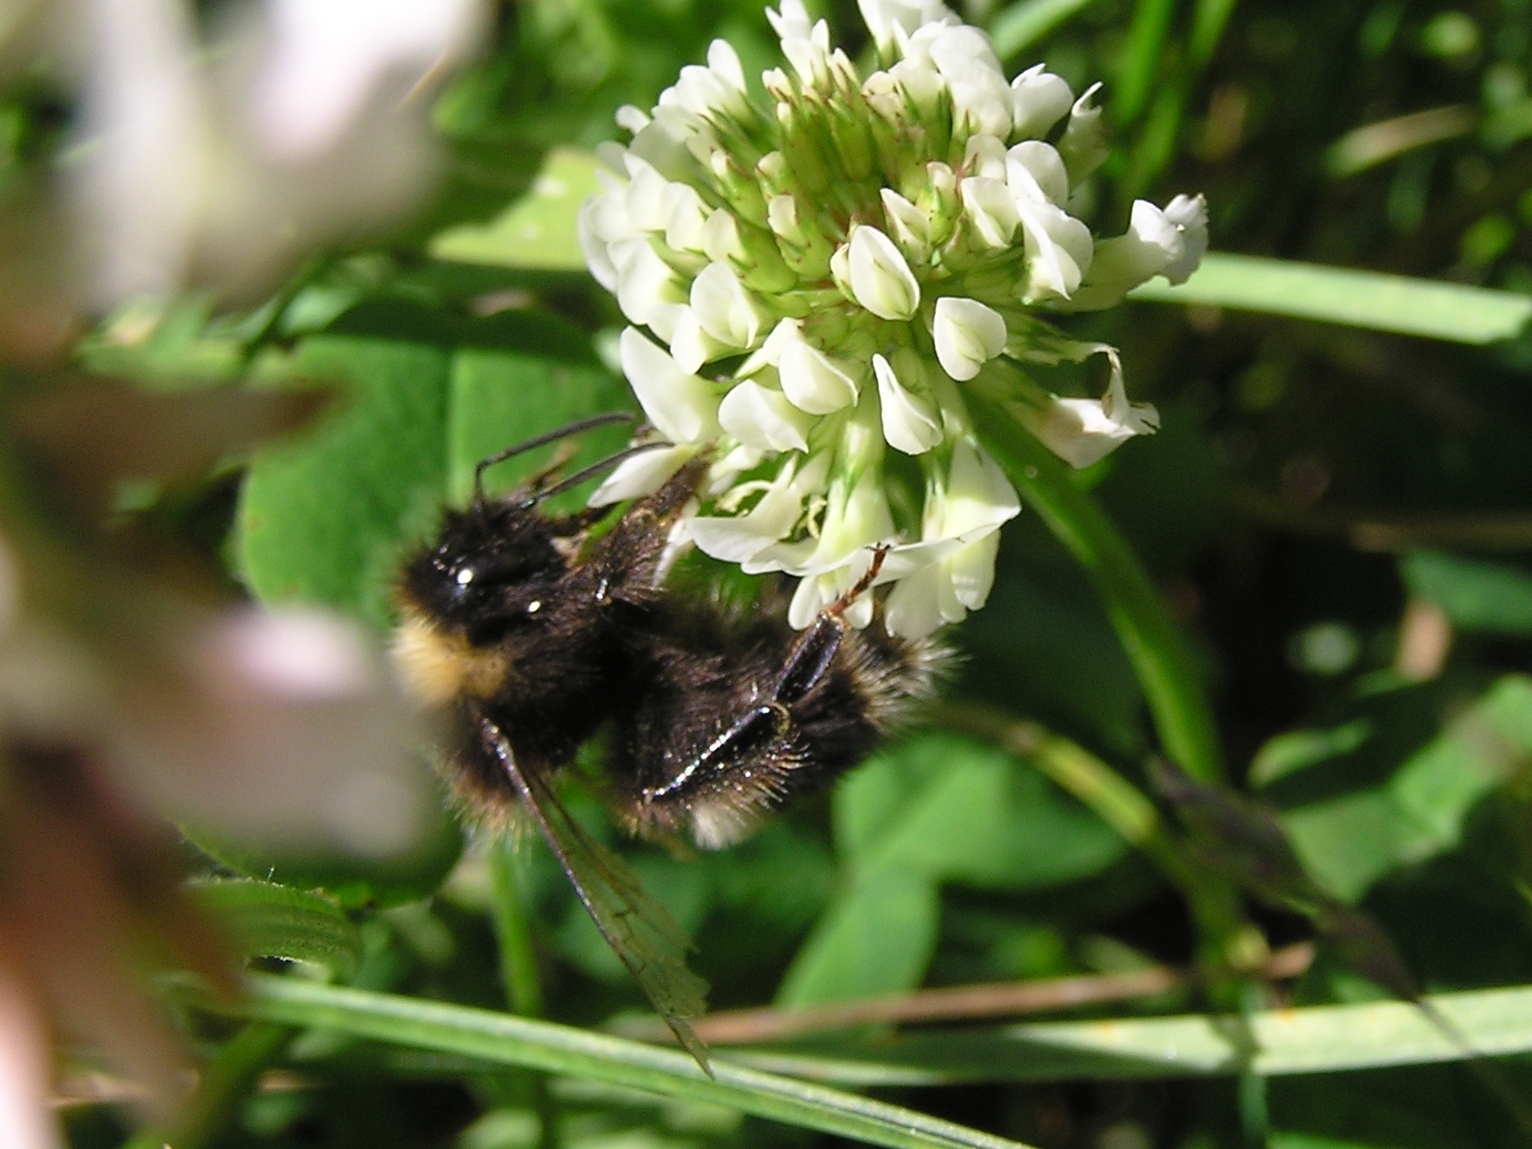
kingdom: Animalia
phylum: Arthropoda
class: Insecta
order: Hymenoptera
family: Apidae
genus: Bombus
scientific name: Bombus terrestris
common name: Buff-tailed bumblebee
